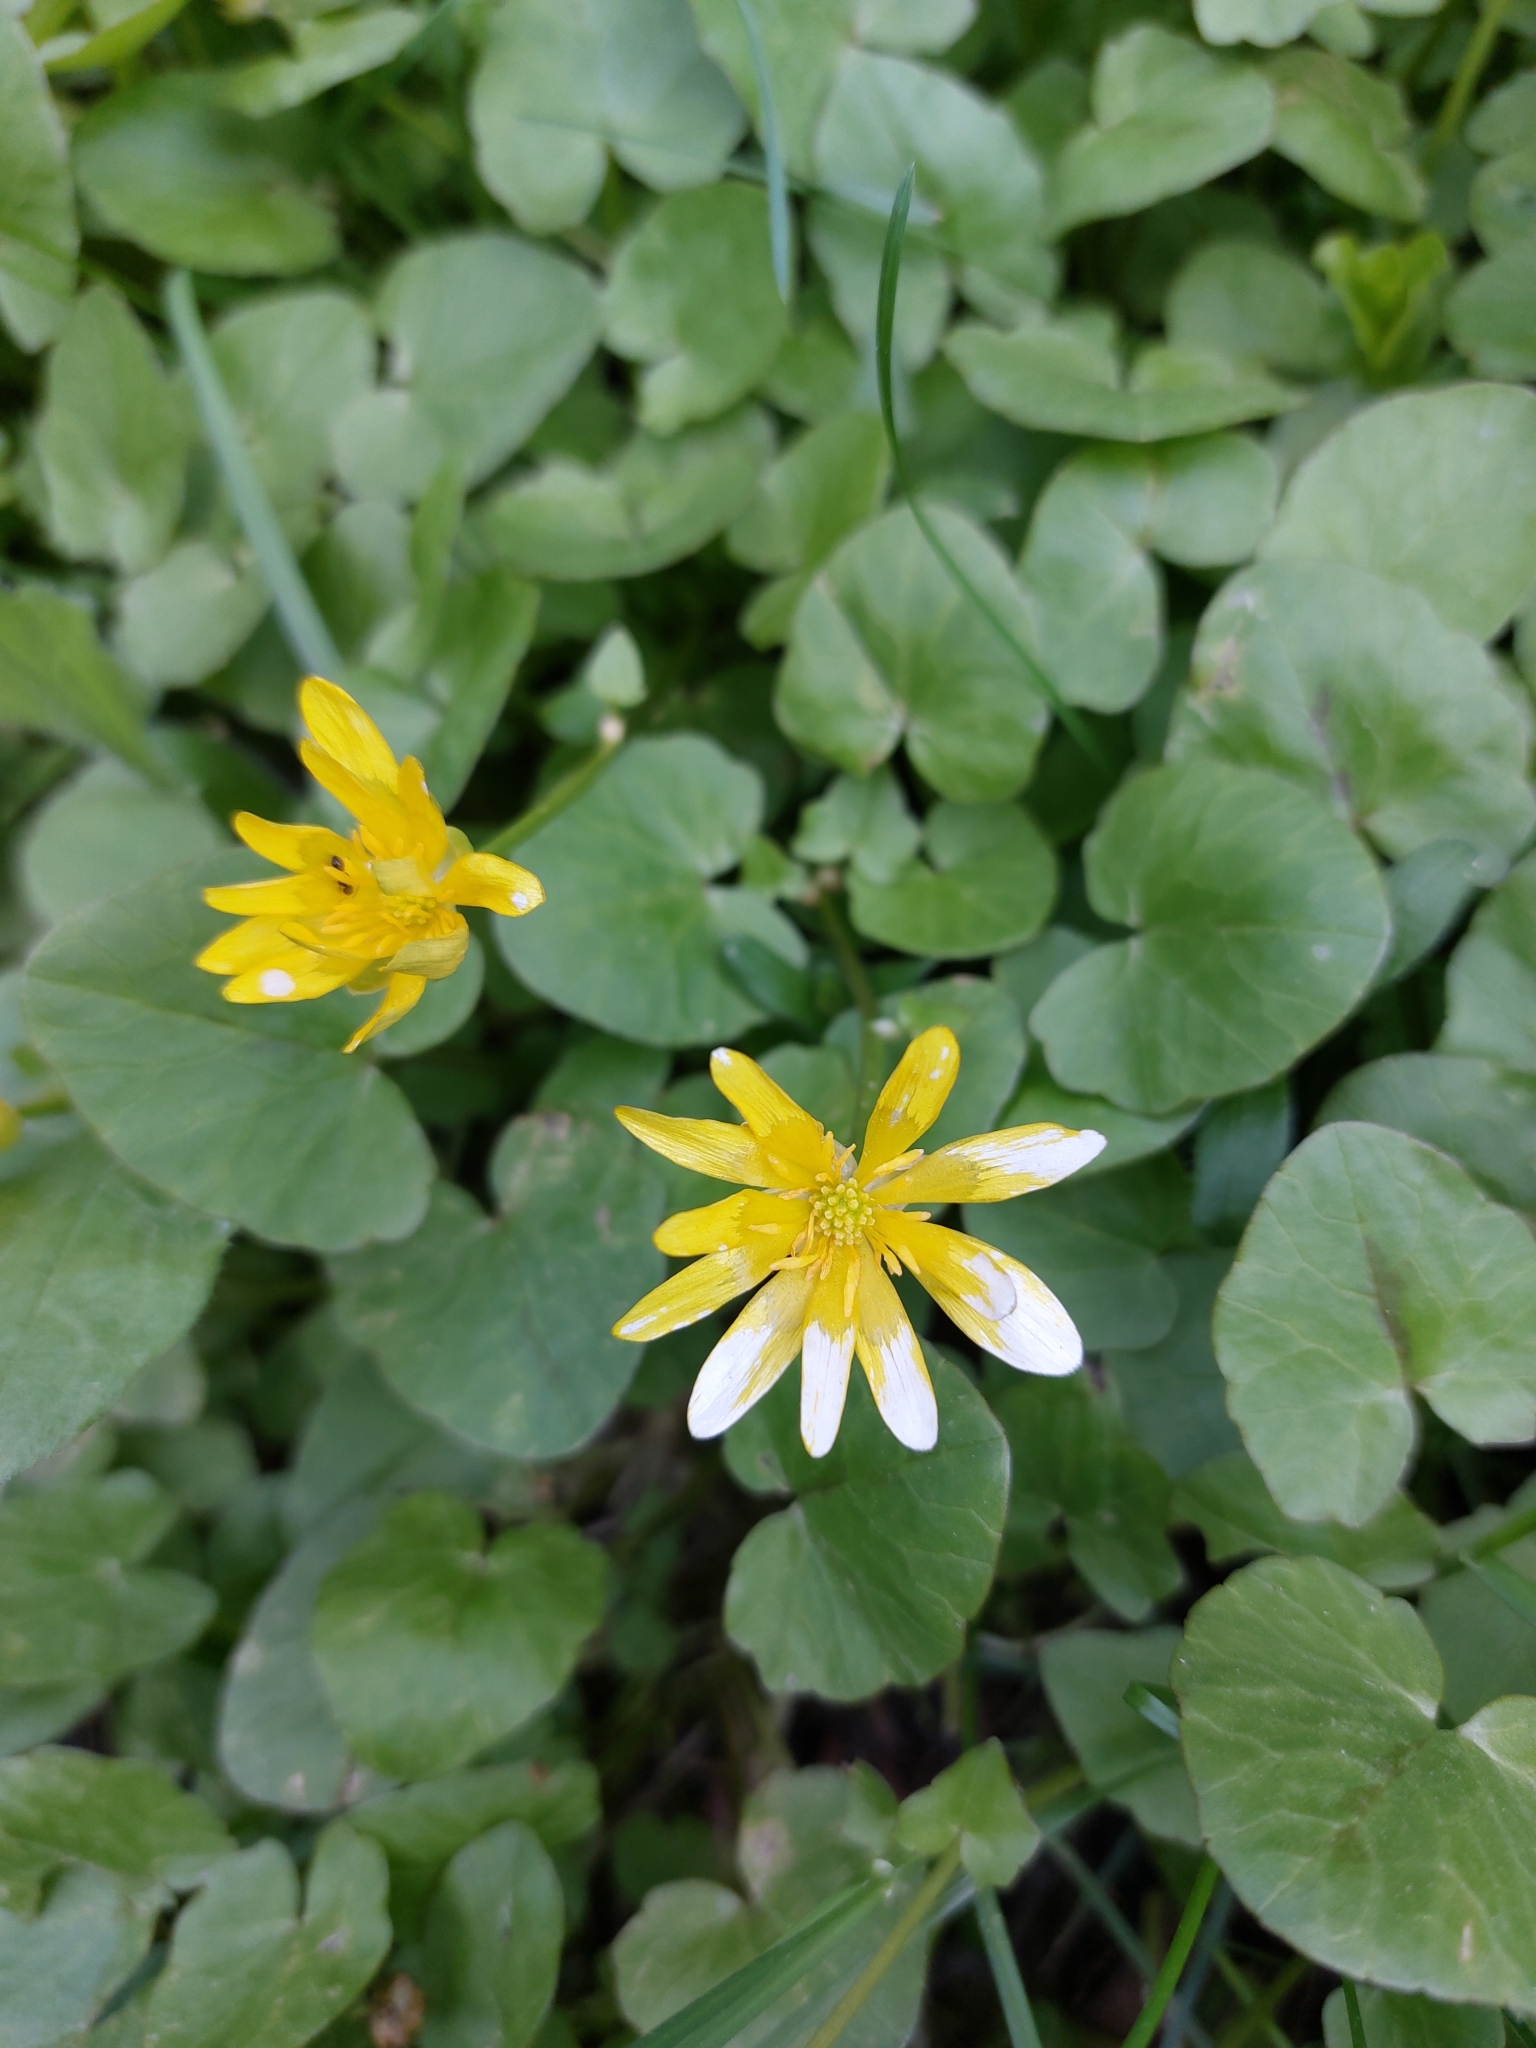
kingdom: Plantae
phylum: Tracheophyta
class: Magnoliopsida
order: Ranunculales
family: Ranunculaceae
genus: Ficaria
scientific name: Ficaria verna
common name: Lesser celandine
